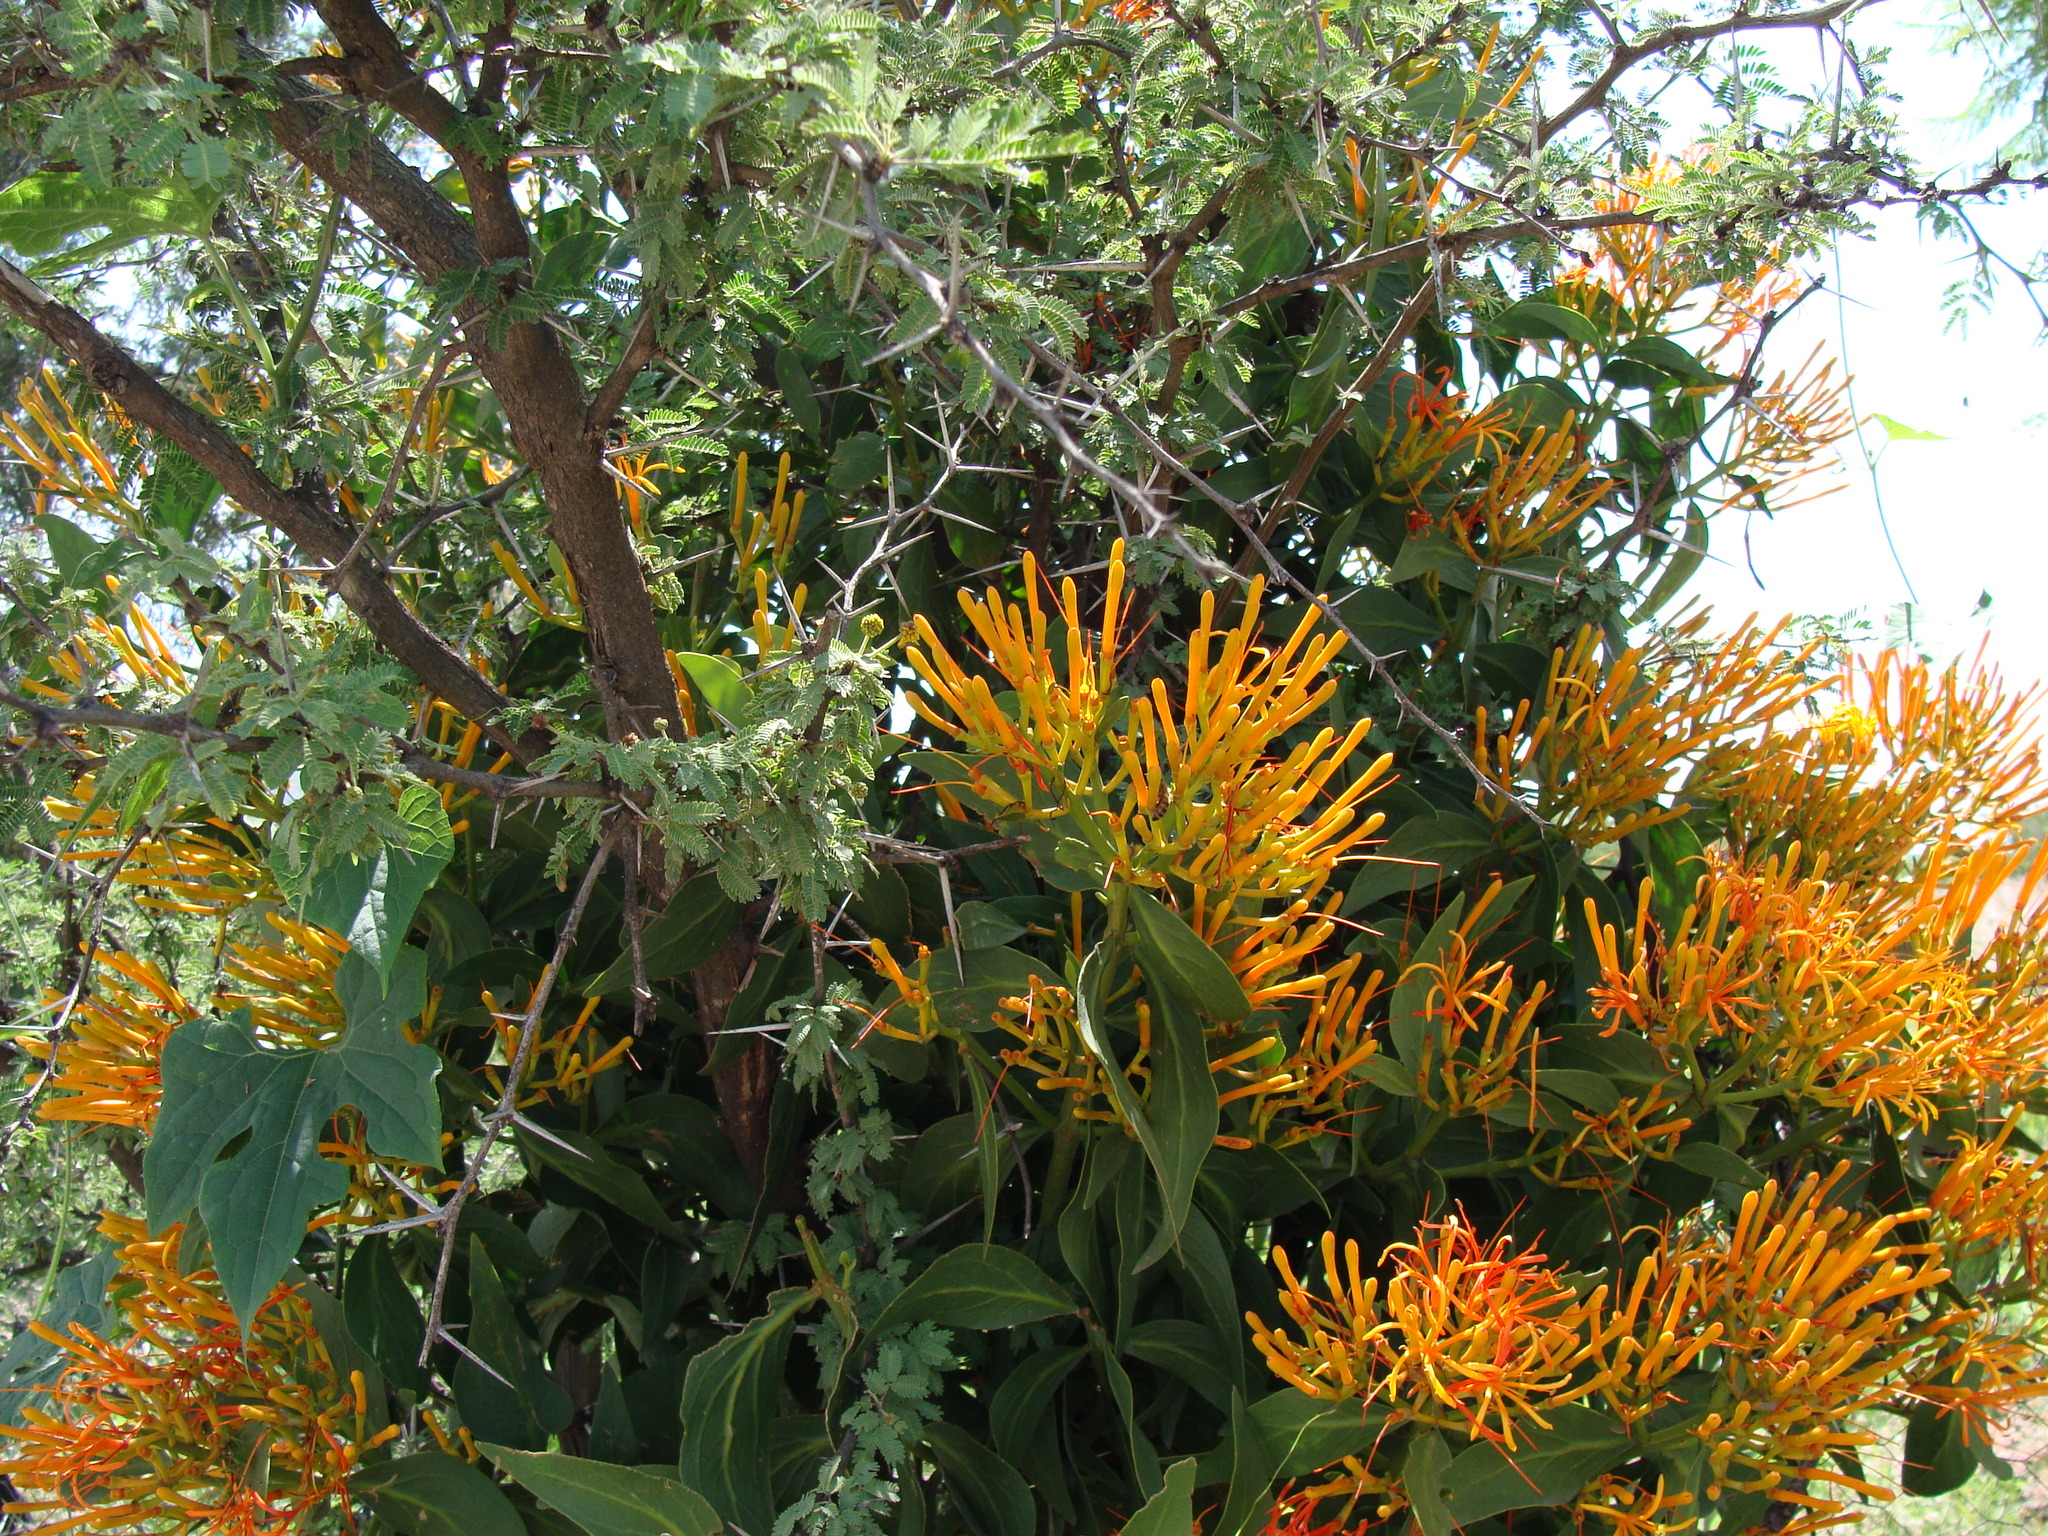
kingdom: Plantae
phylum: Tracheophyta
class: Magnoliopsida
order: Santalales
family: Loranthaceae
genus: Psittacanthus
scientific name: Psittacanthus calyculatus
